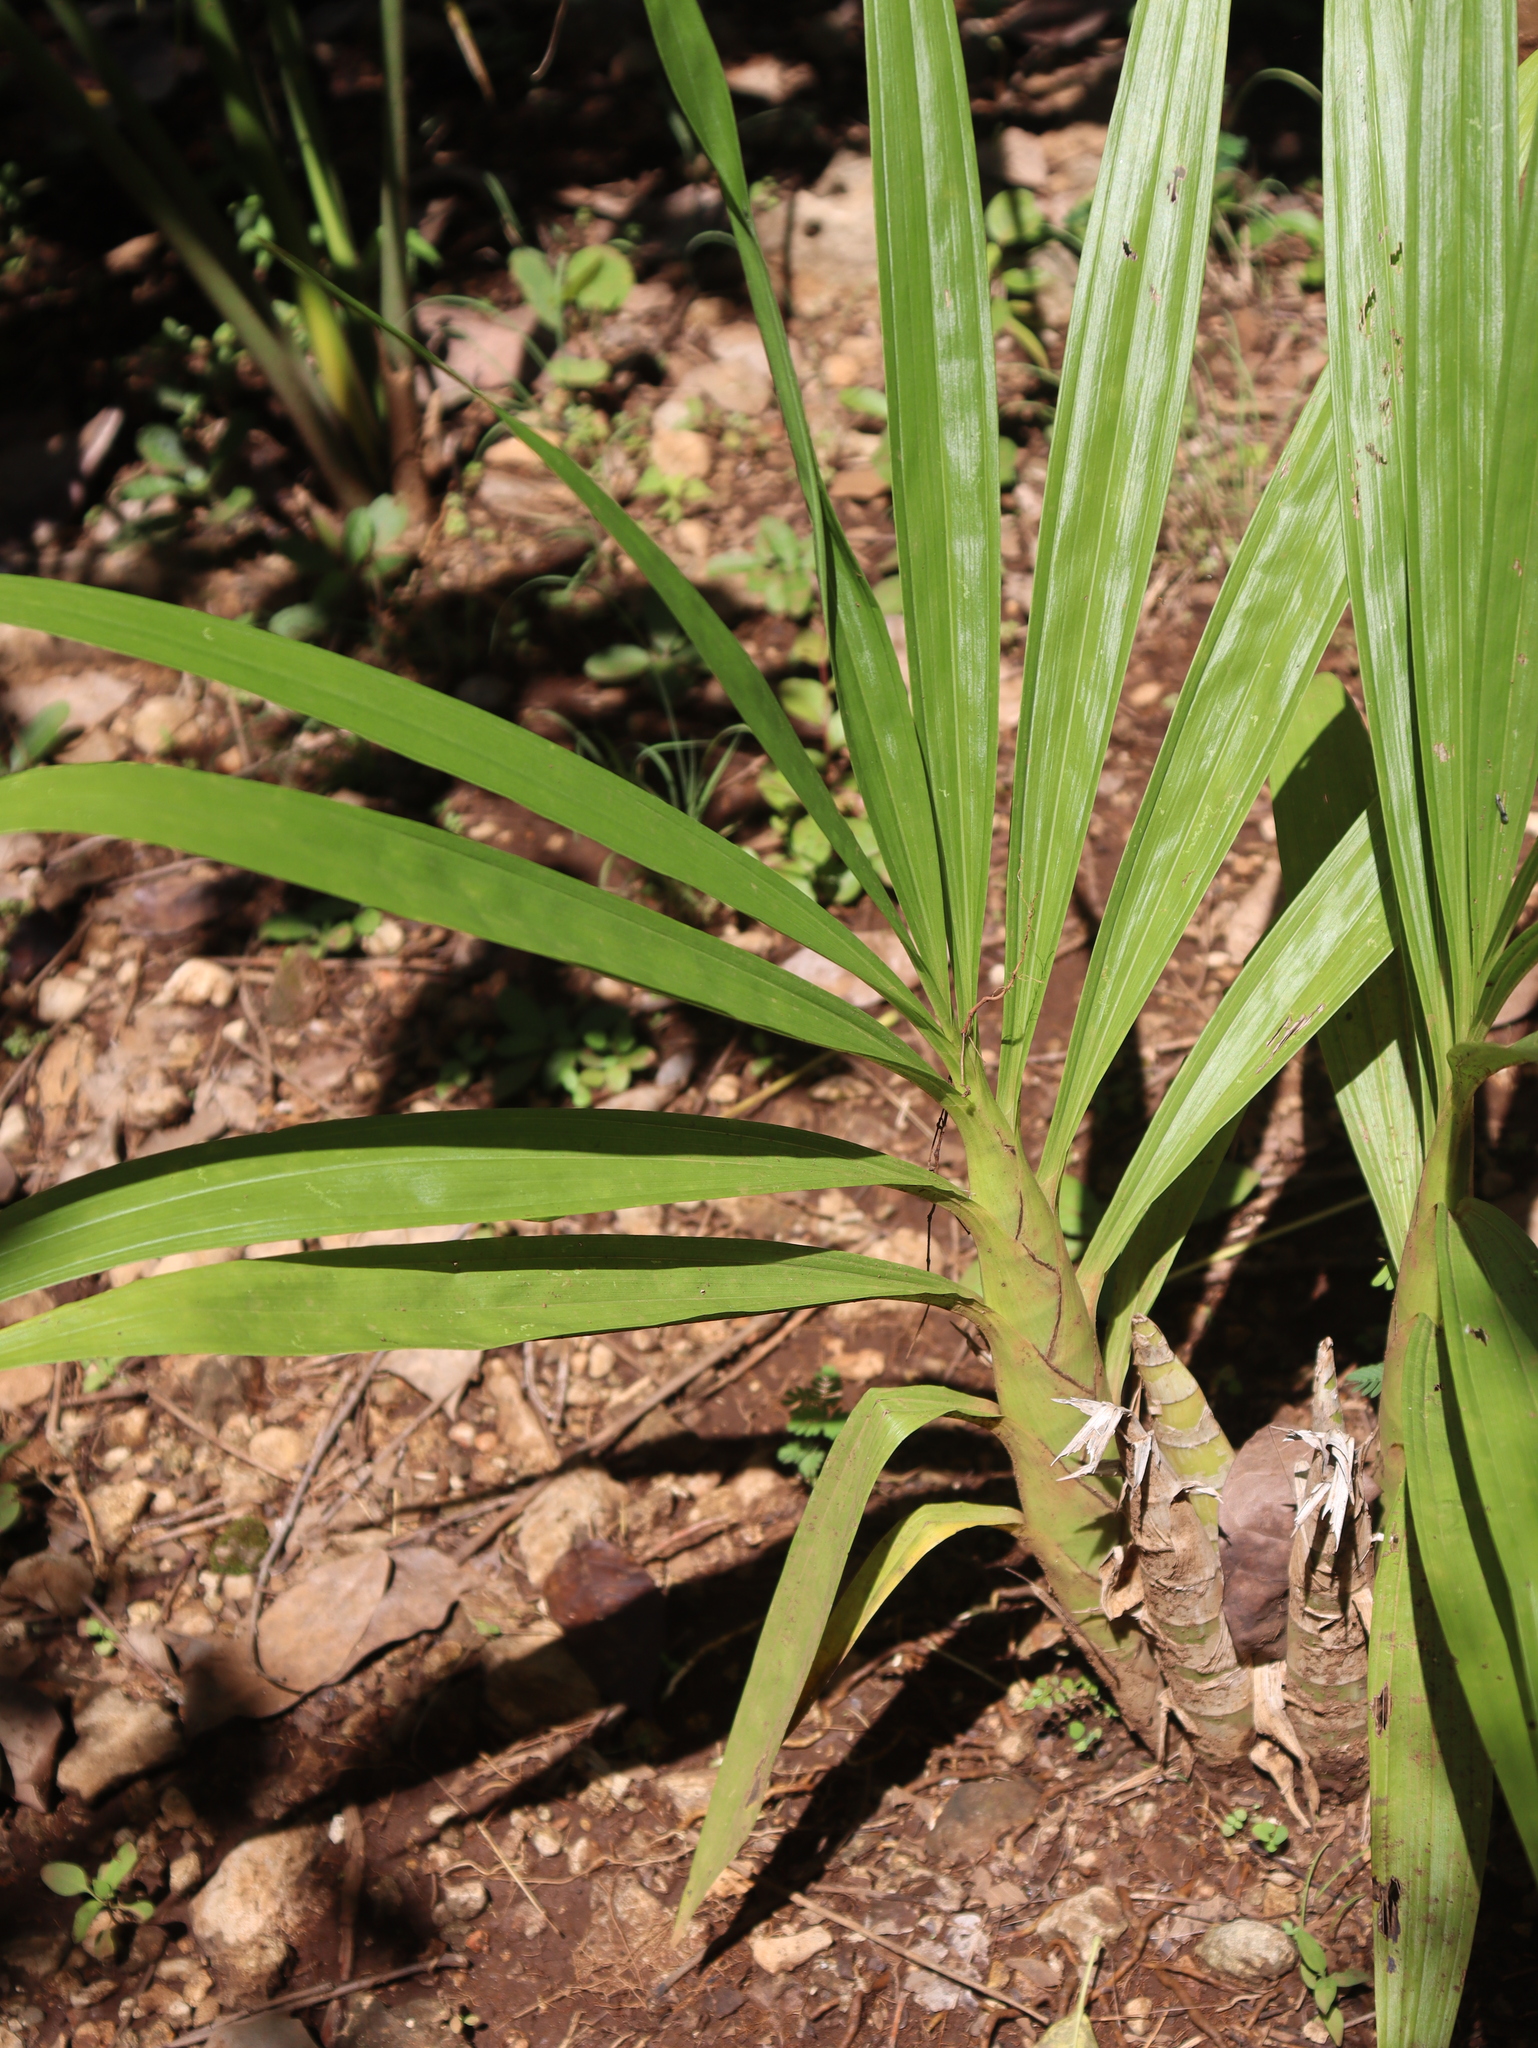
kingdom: Plantae
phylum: Tracheophyta
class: Liliopsida
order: Asparagales
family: Orchidaceae
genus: Cyrtopodium
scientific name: Cyrtopodium macrobulbon
